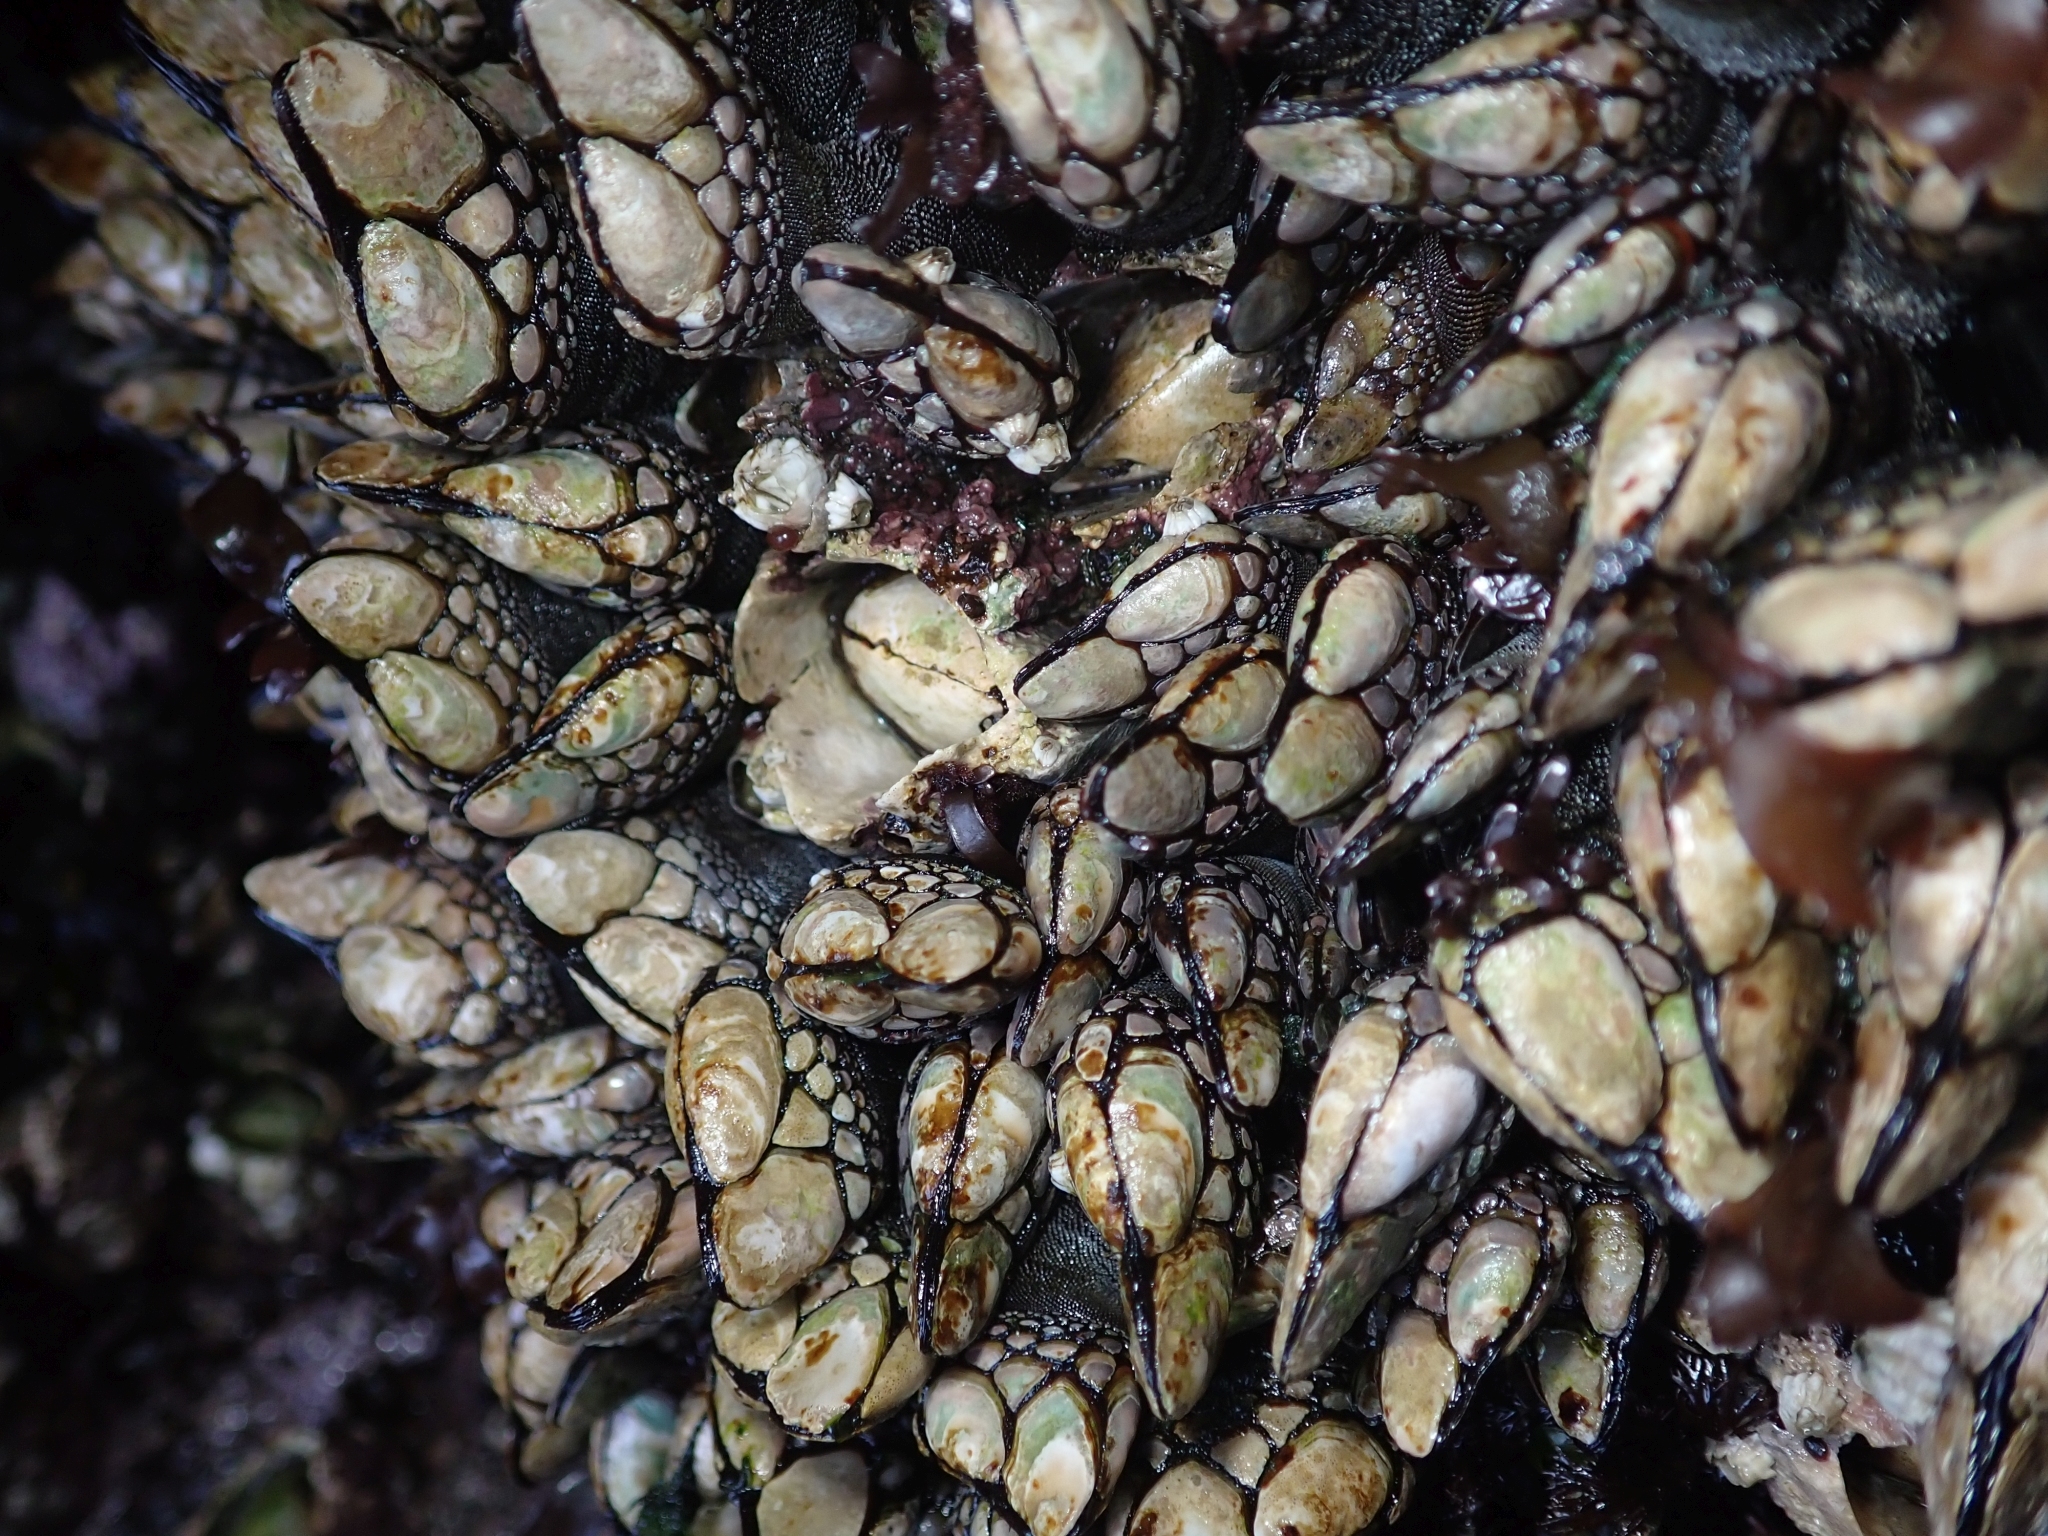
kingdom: Animalia
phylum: Arthropoda
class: Maxillopoda
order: Pedunculata
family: Pollicipedidae
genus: Pollicipes
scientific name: Pollicipes polymerus
